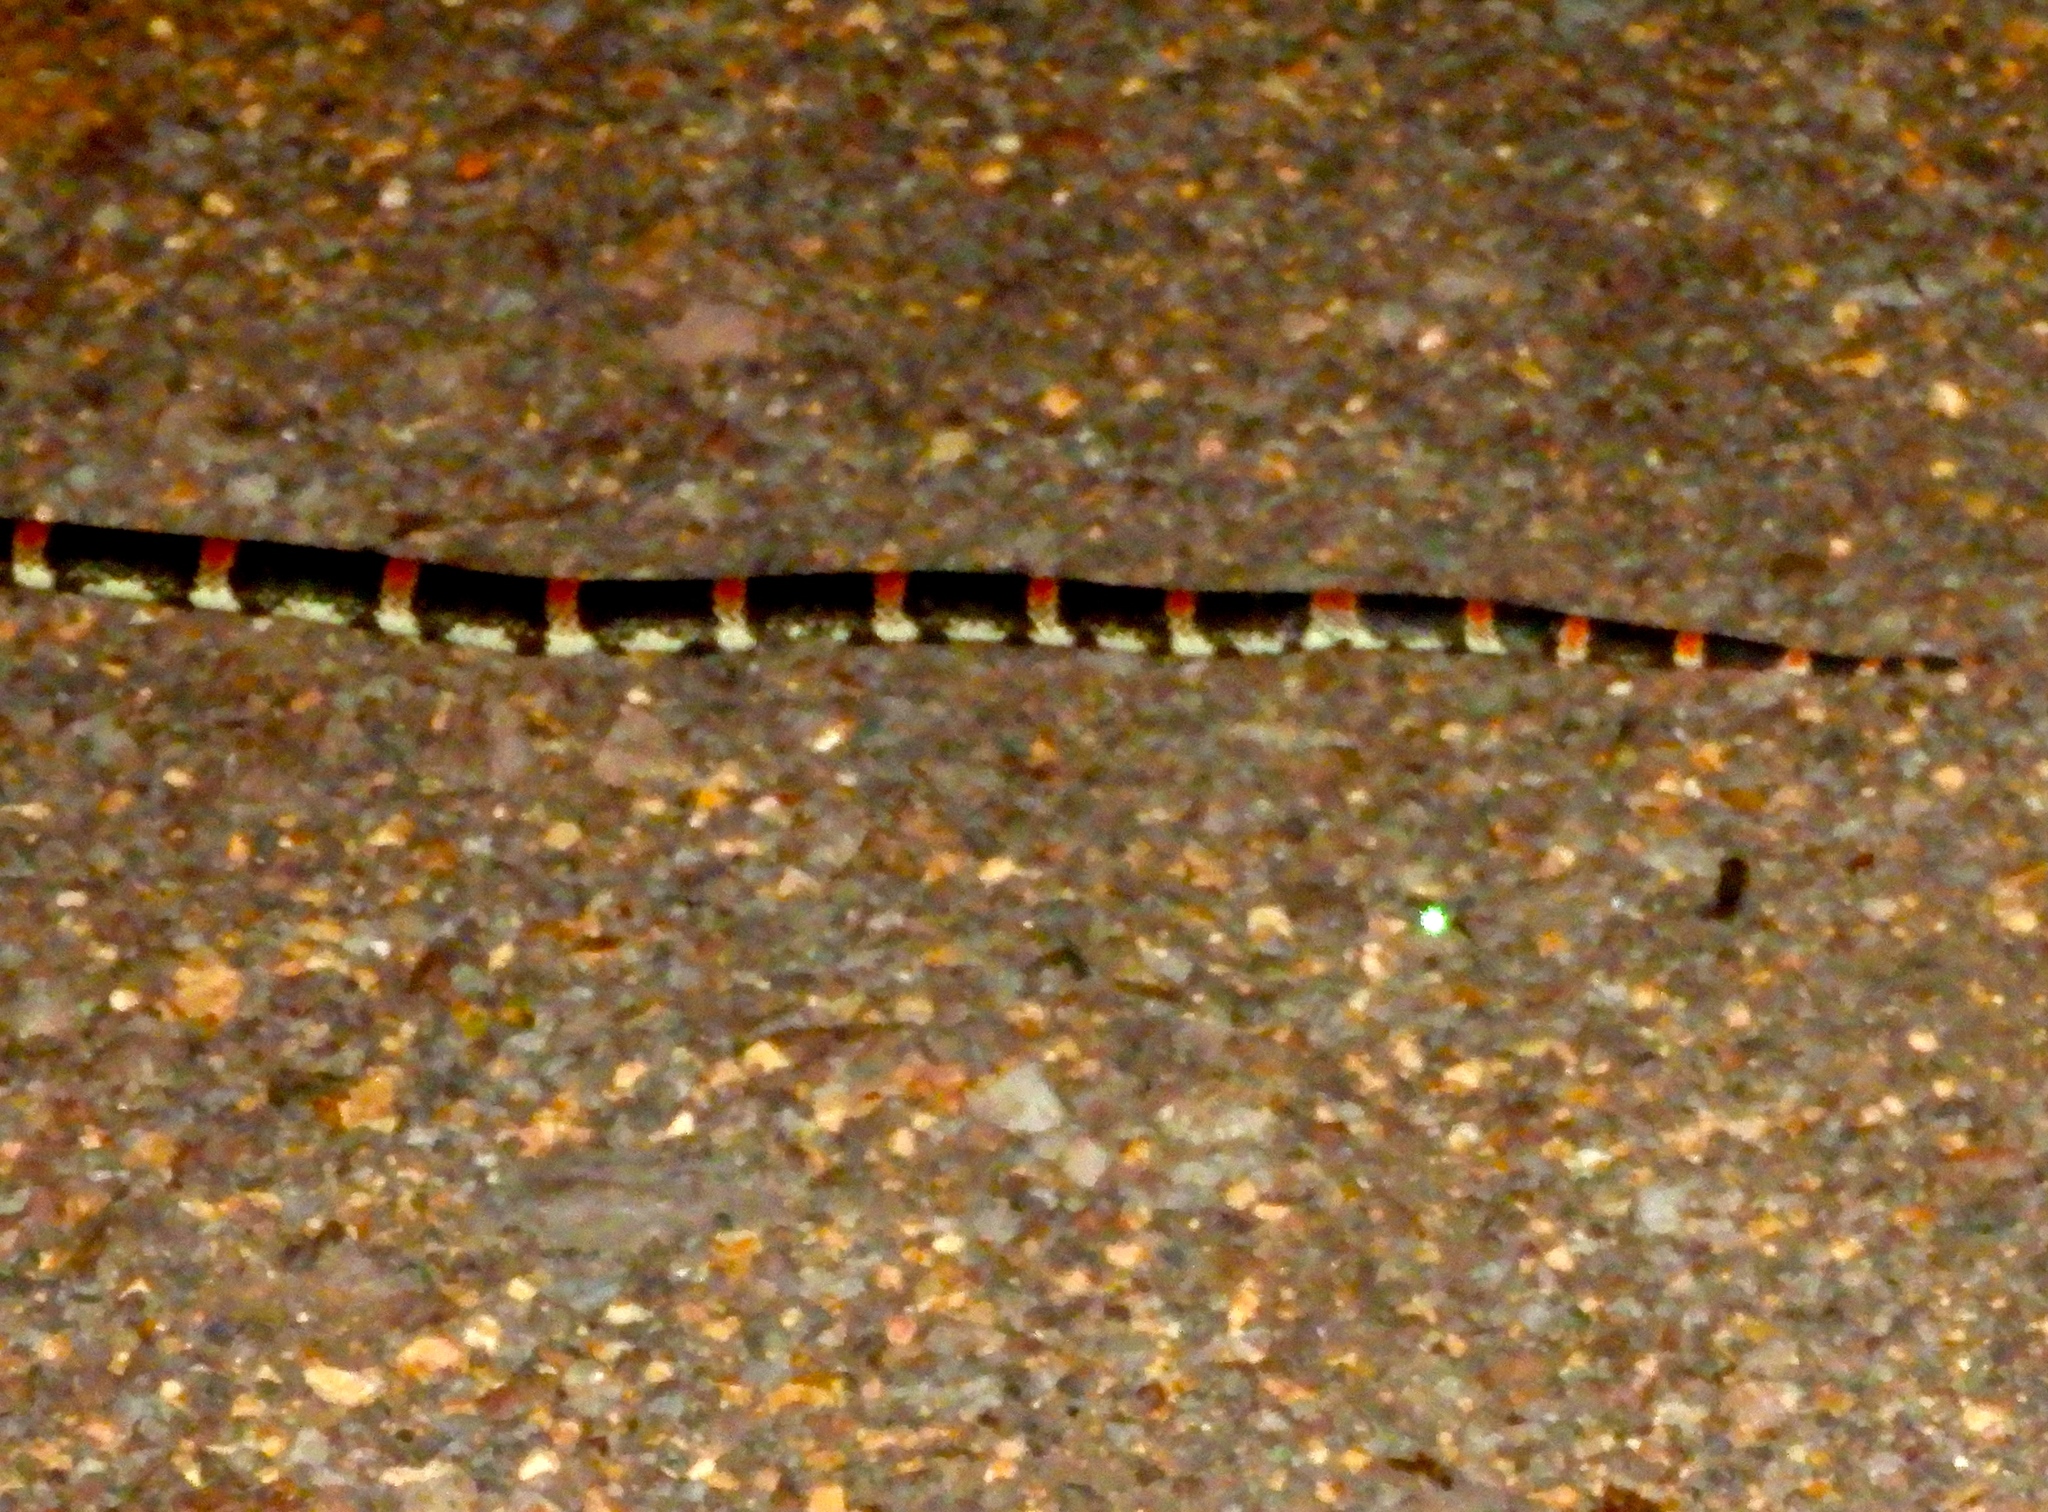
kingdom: Animalia
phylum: Chordata
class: Squamata
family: Colubridae
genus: Rhinocheilus
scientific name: Rhinocheilus antonii
